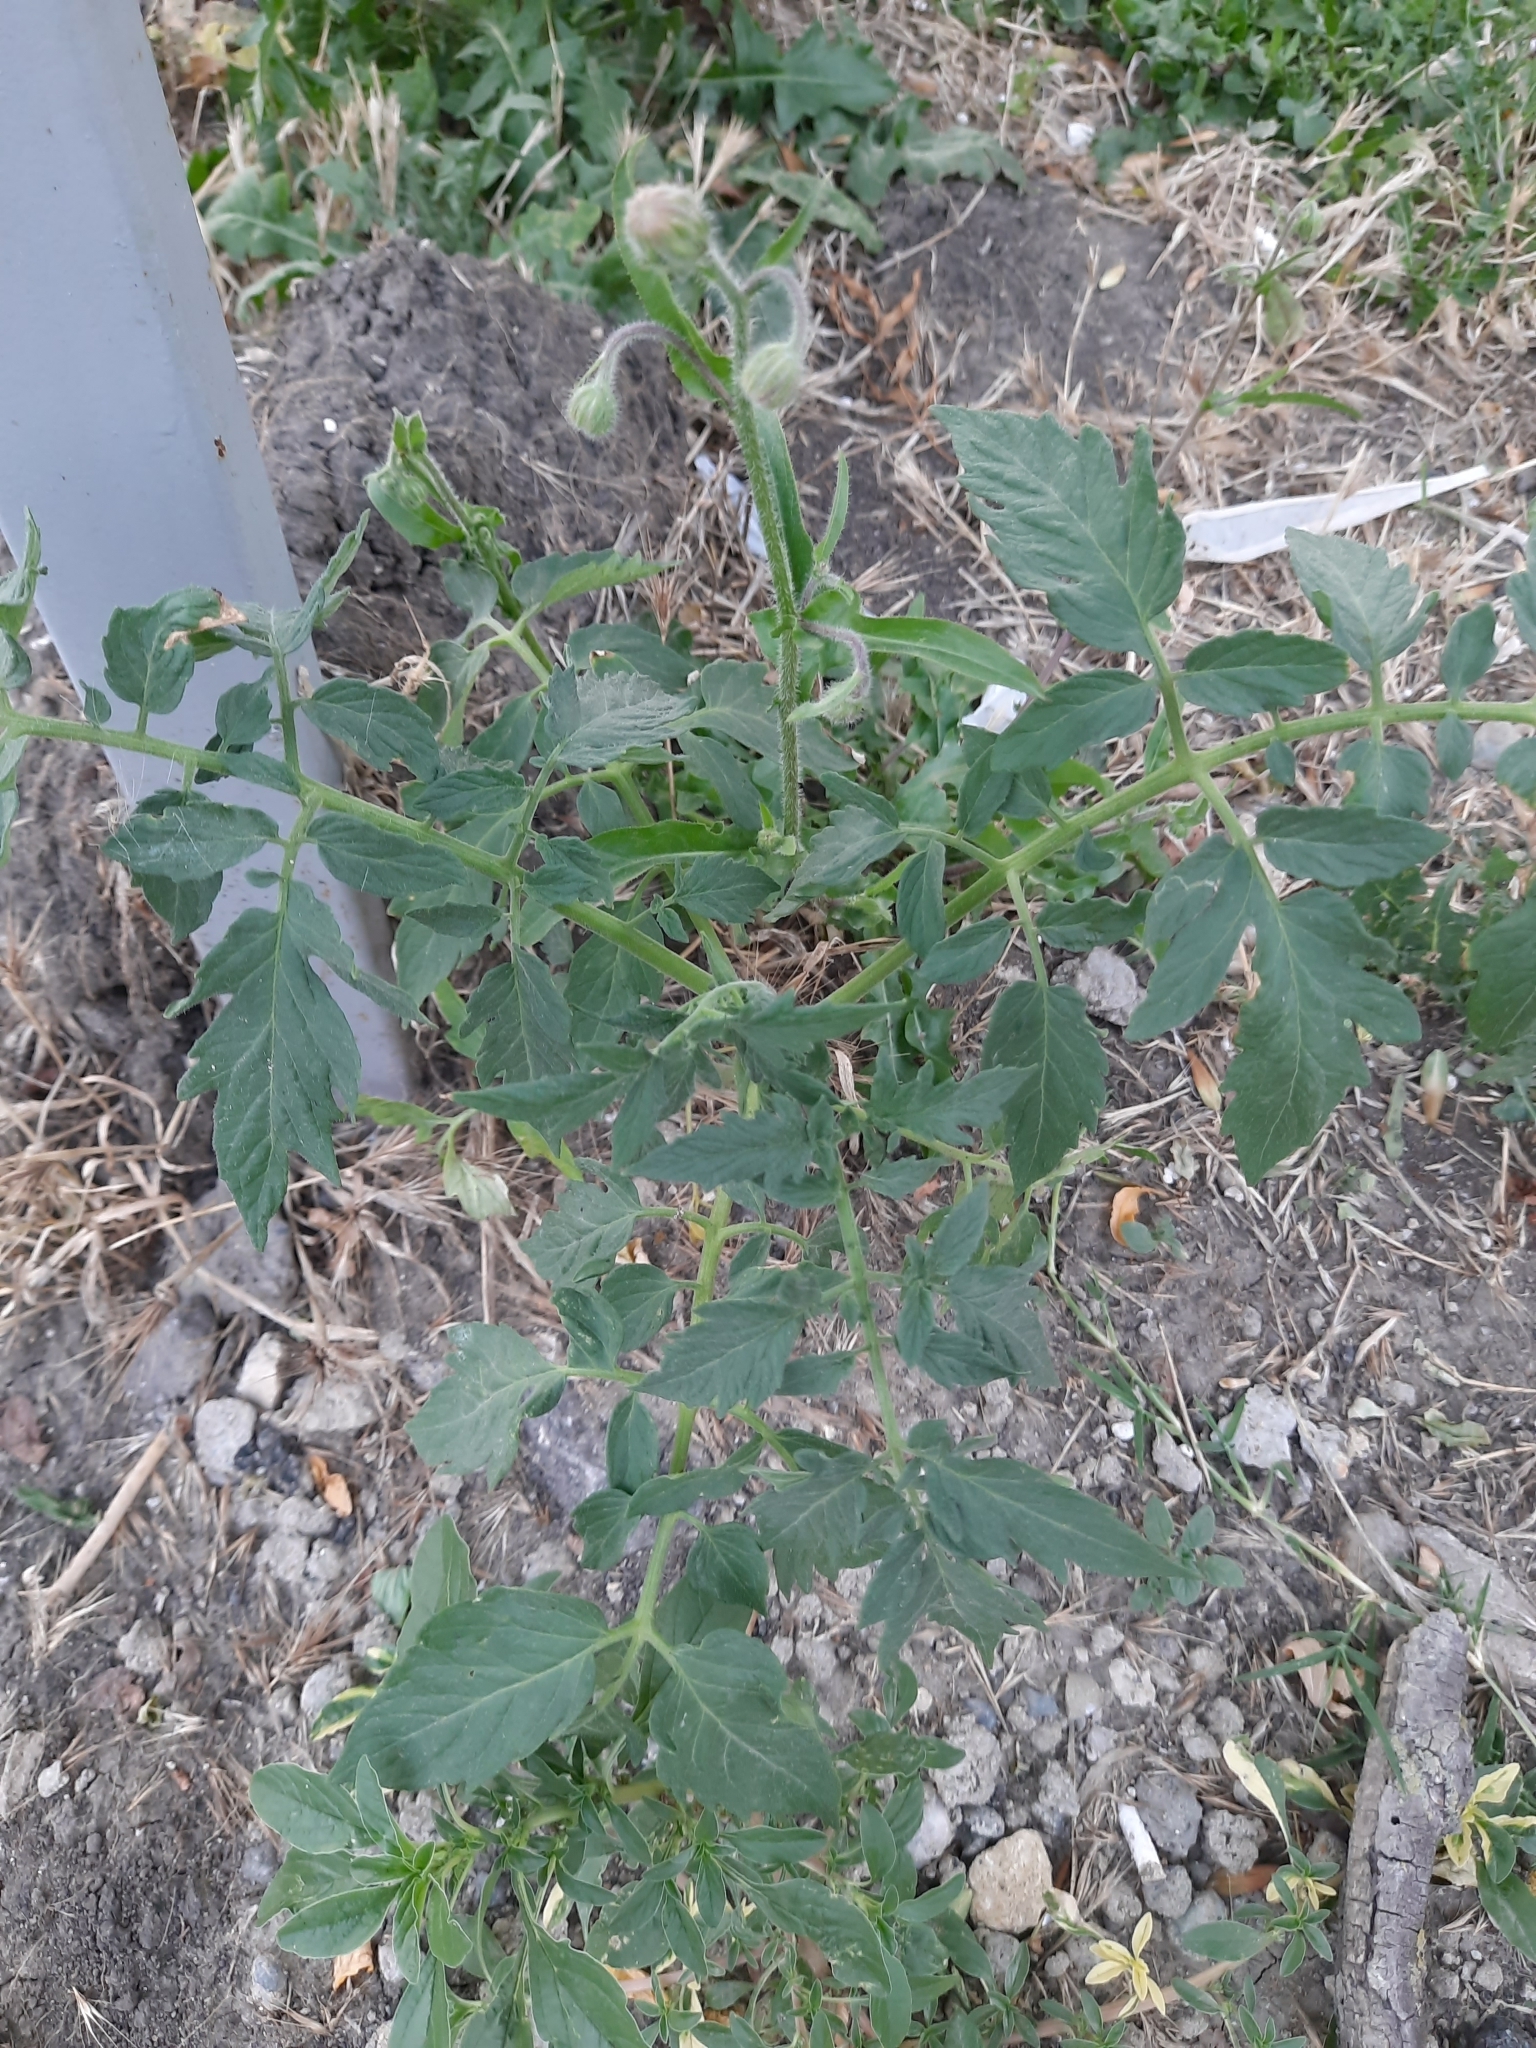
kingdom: Plantae
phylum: Tracheophyta
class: Magnoliopsida
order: Solanales
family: Solanaceae
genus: Solanum
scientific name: Solanum lycopersicum
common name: Garden tomato
